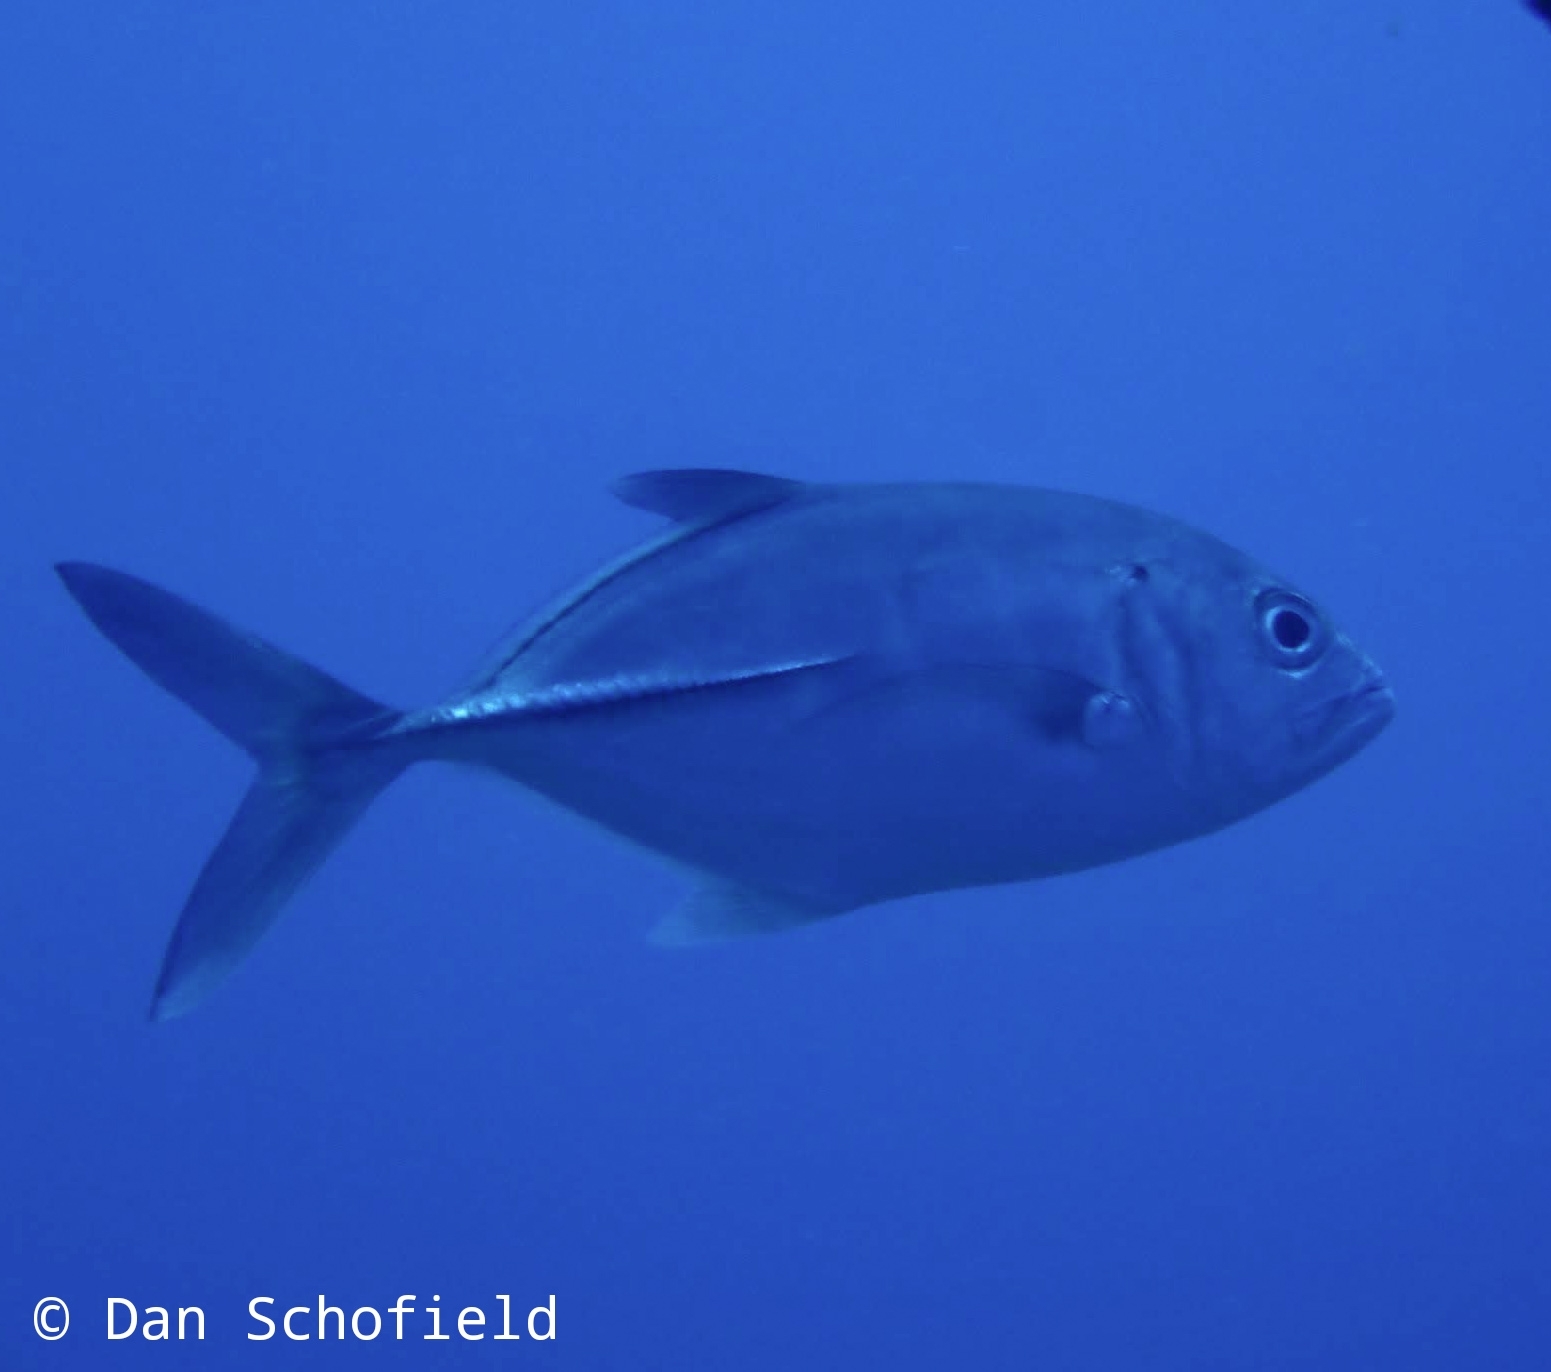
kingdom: Animalia
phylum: Chordata
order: Perciformes
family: Carangidae
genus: Caranx
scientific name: Caranx sexfasciatus
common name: Bigeye trevally
